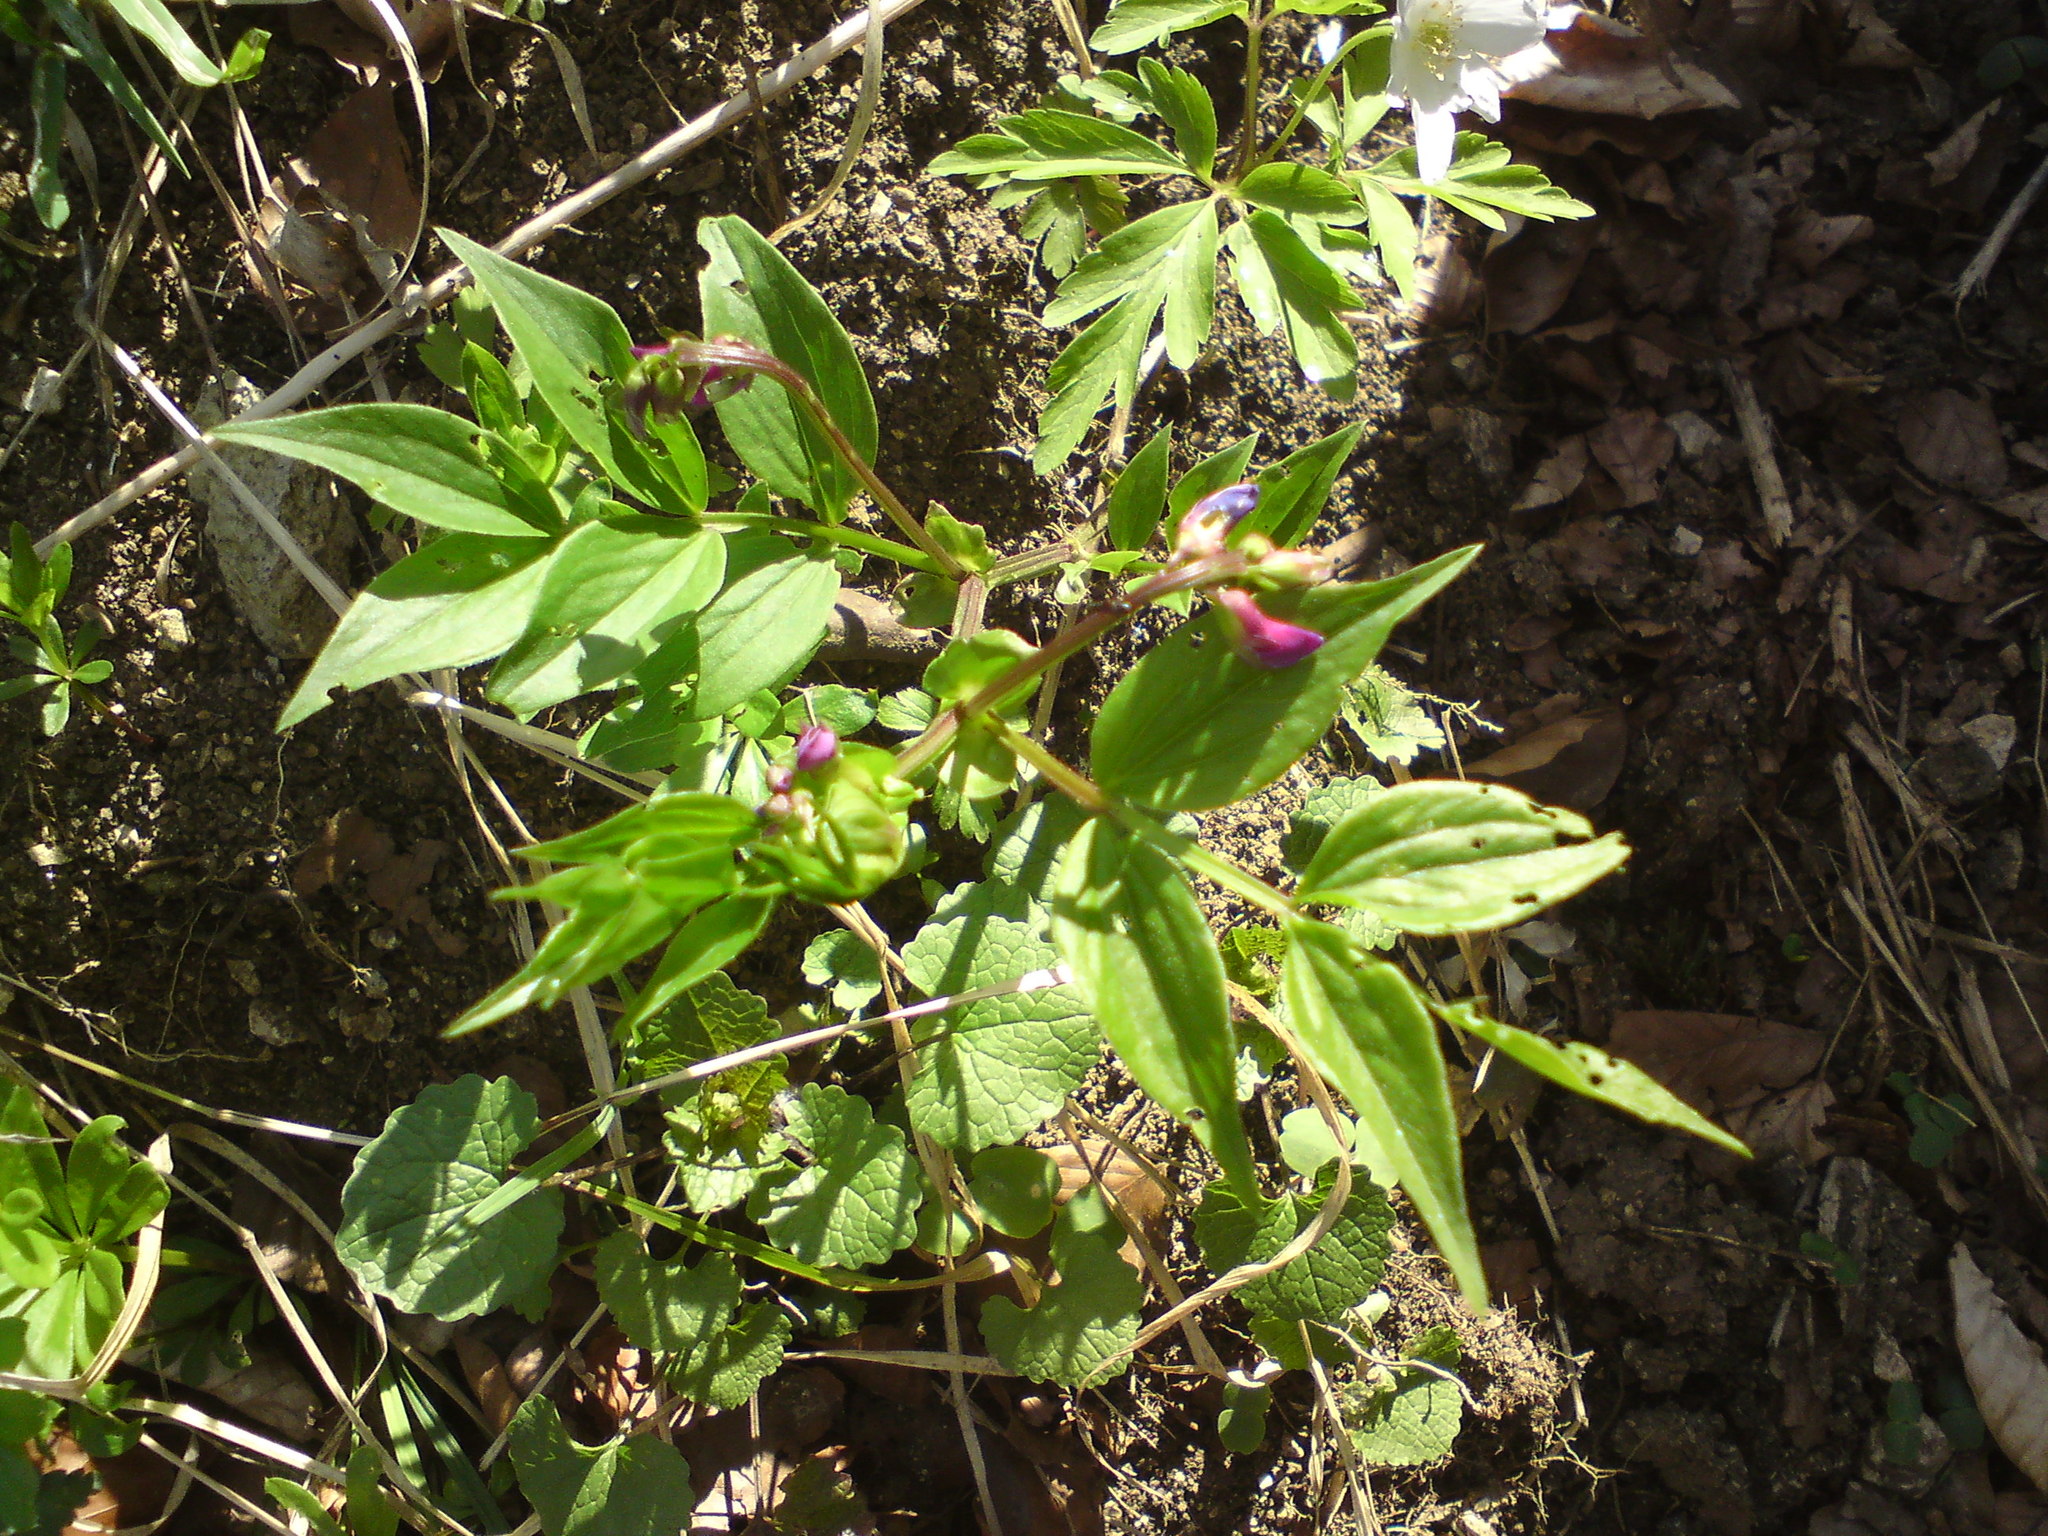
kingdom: Plantae
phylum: Tracheophyta
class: Magnoliopsida
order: Fabales
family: Fabaceae
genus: Lathyrus
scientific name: Lathyrus vernus
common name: Spring pea
